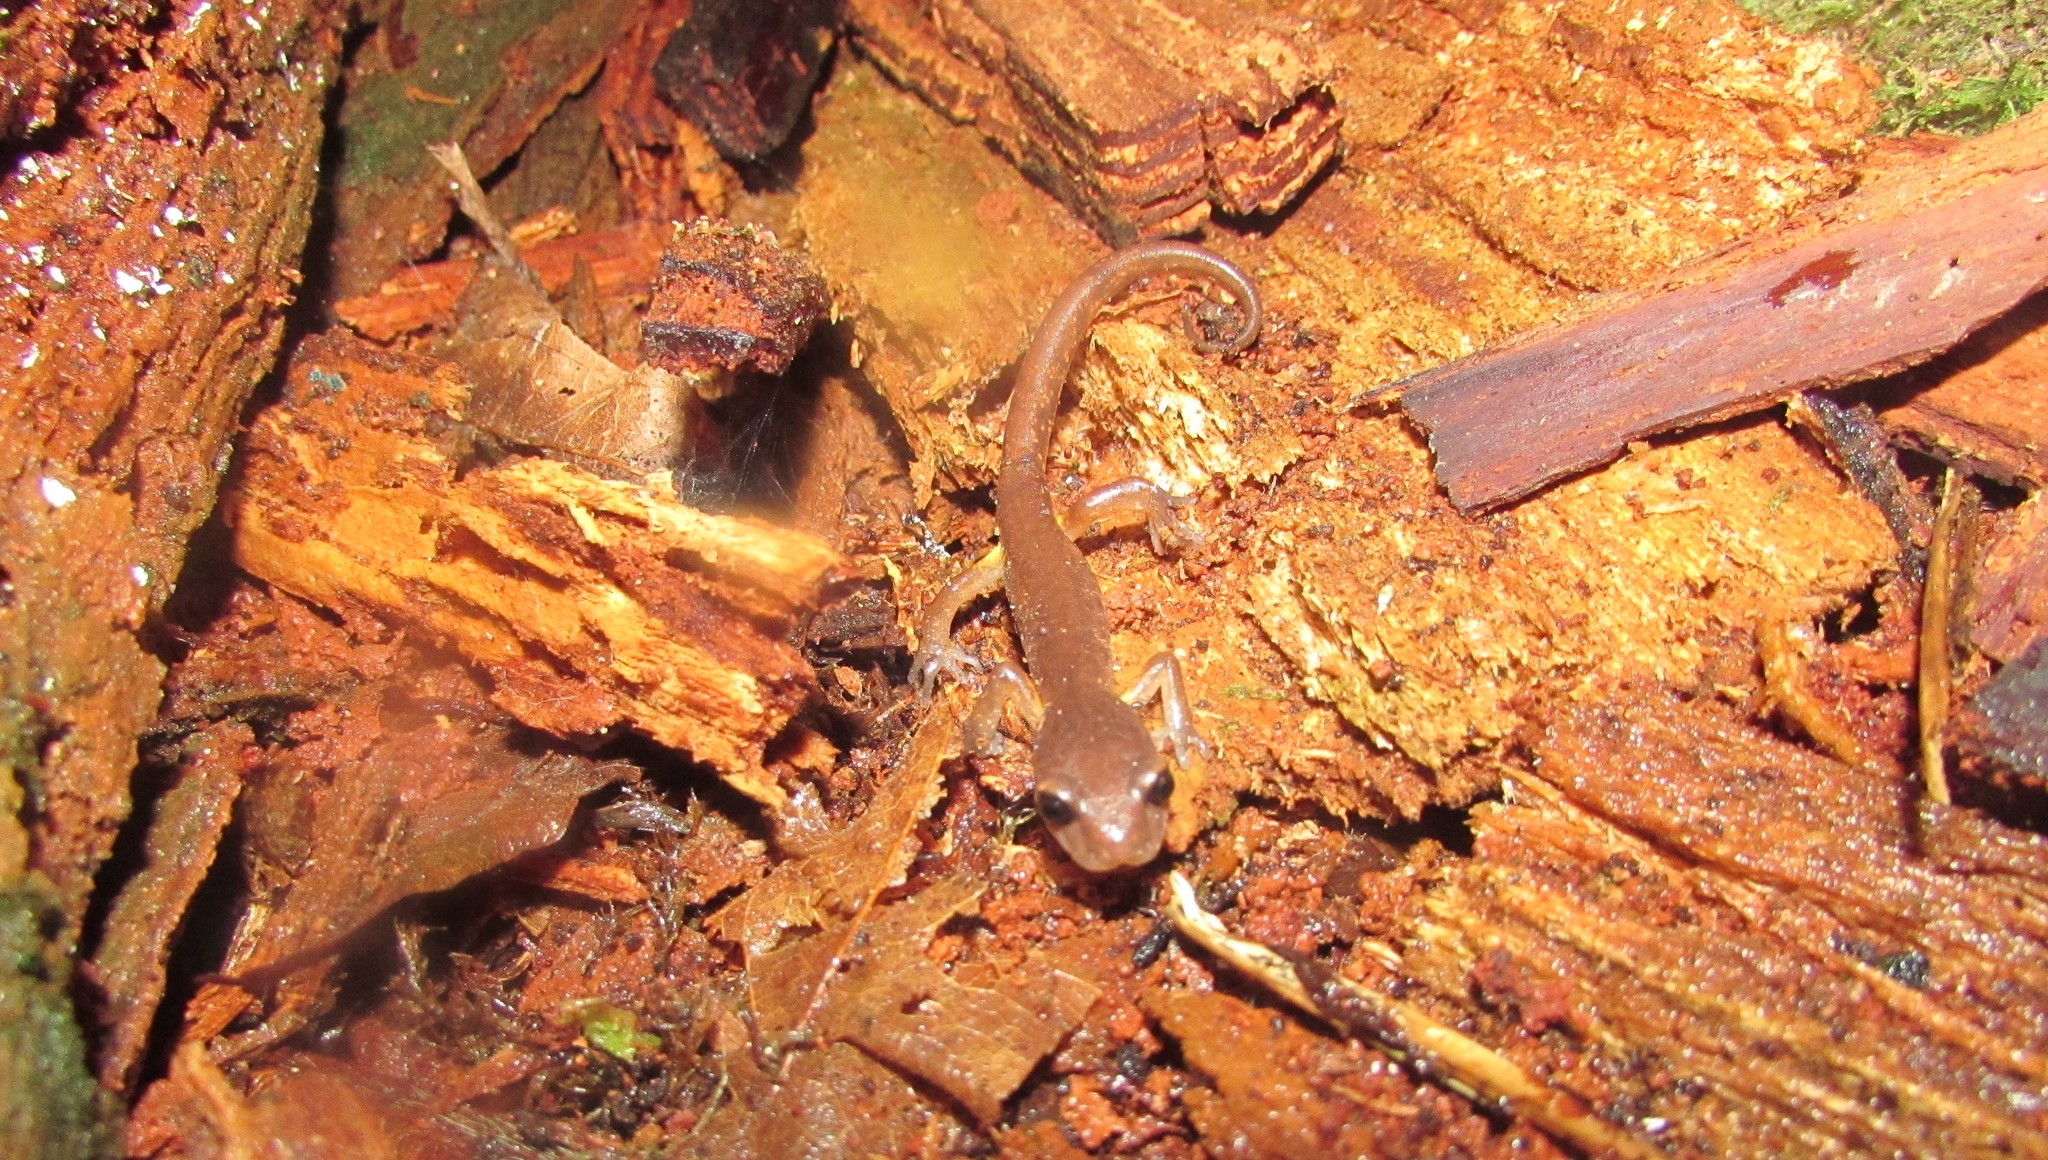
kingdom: Animalia
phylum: Chordata
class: Amphibia
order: Caudata
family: Plethodontidae
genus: Ensatina
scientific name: Ensatina eschscholtzii
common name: Ensatina
